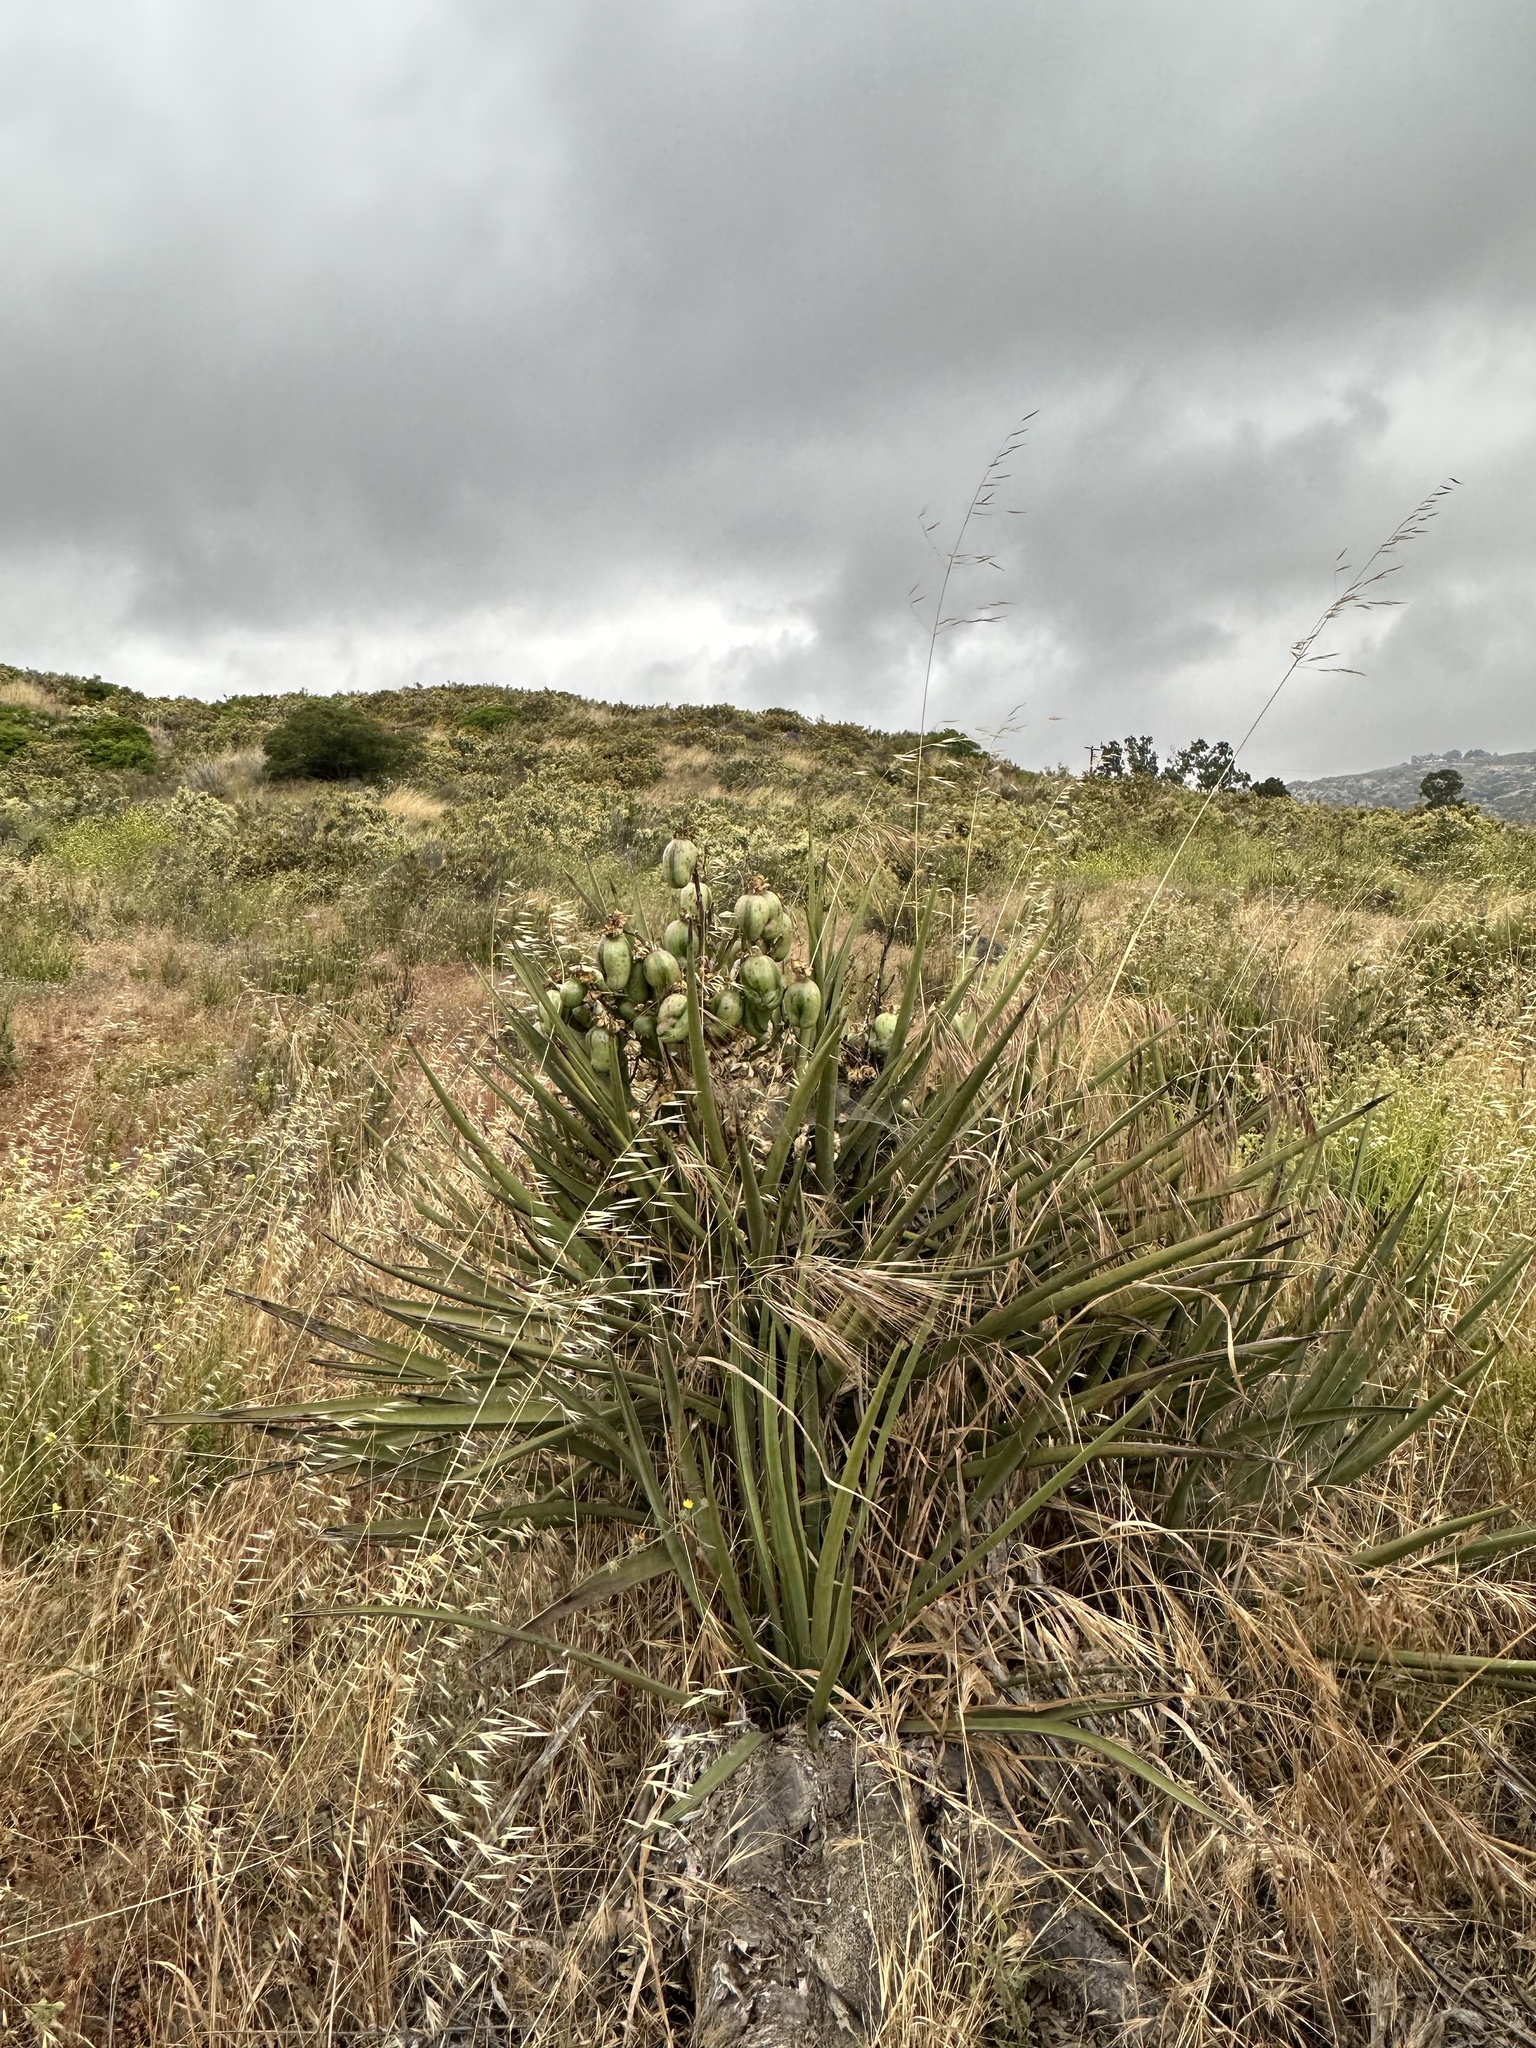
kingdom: Plantae
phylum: Tracheophyta
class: Liliopsida
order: Asparagales
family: Asparagaceae
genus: Yucca
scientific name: Yucca schidigera
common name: Mojave yucca
